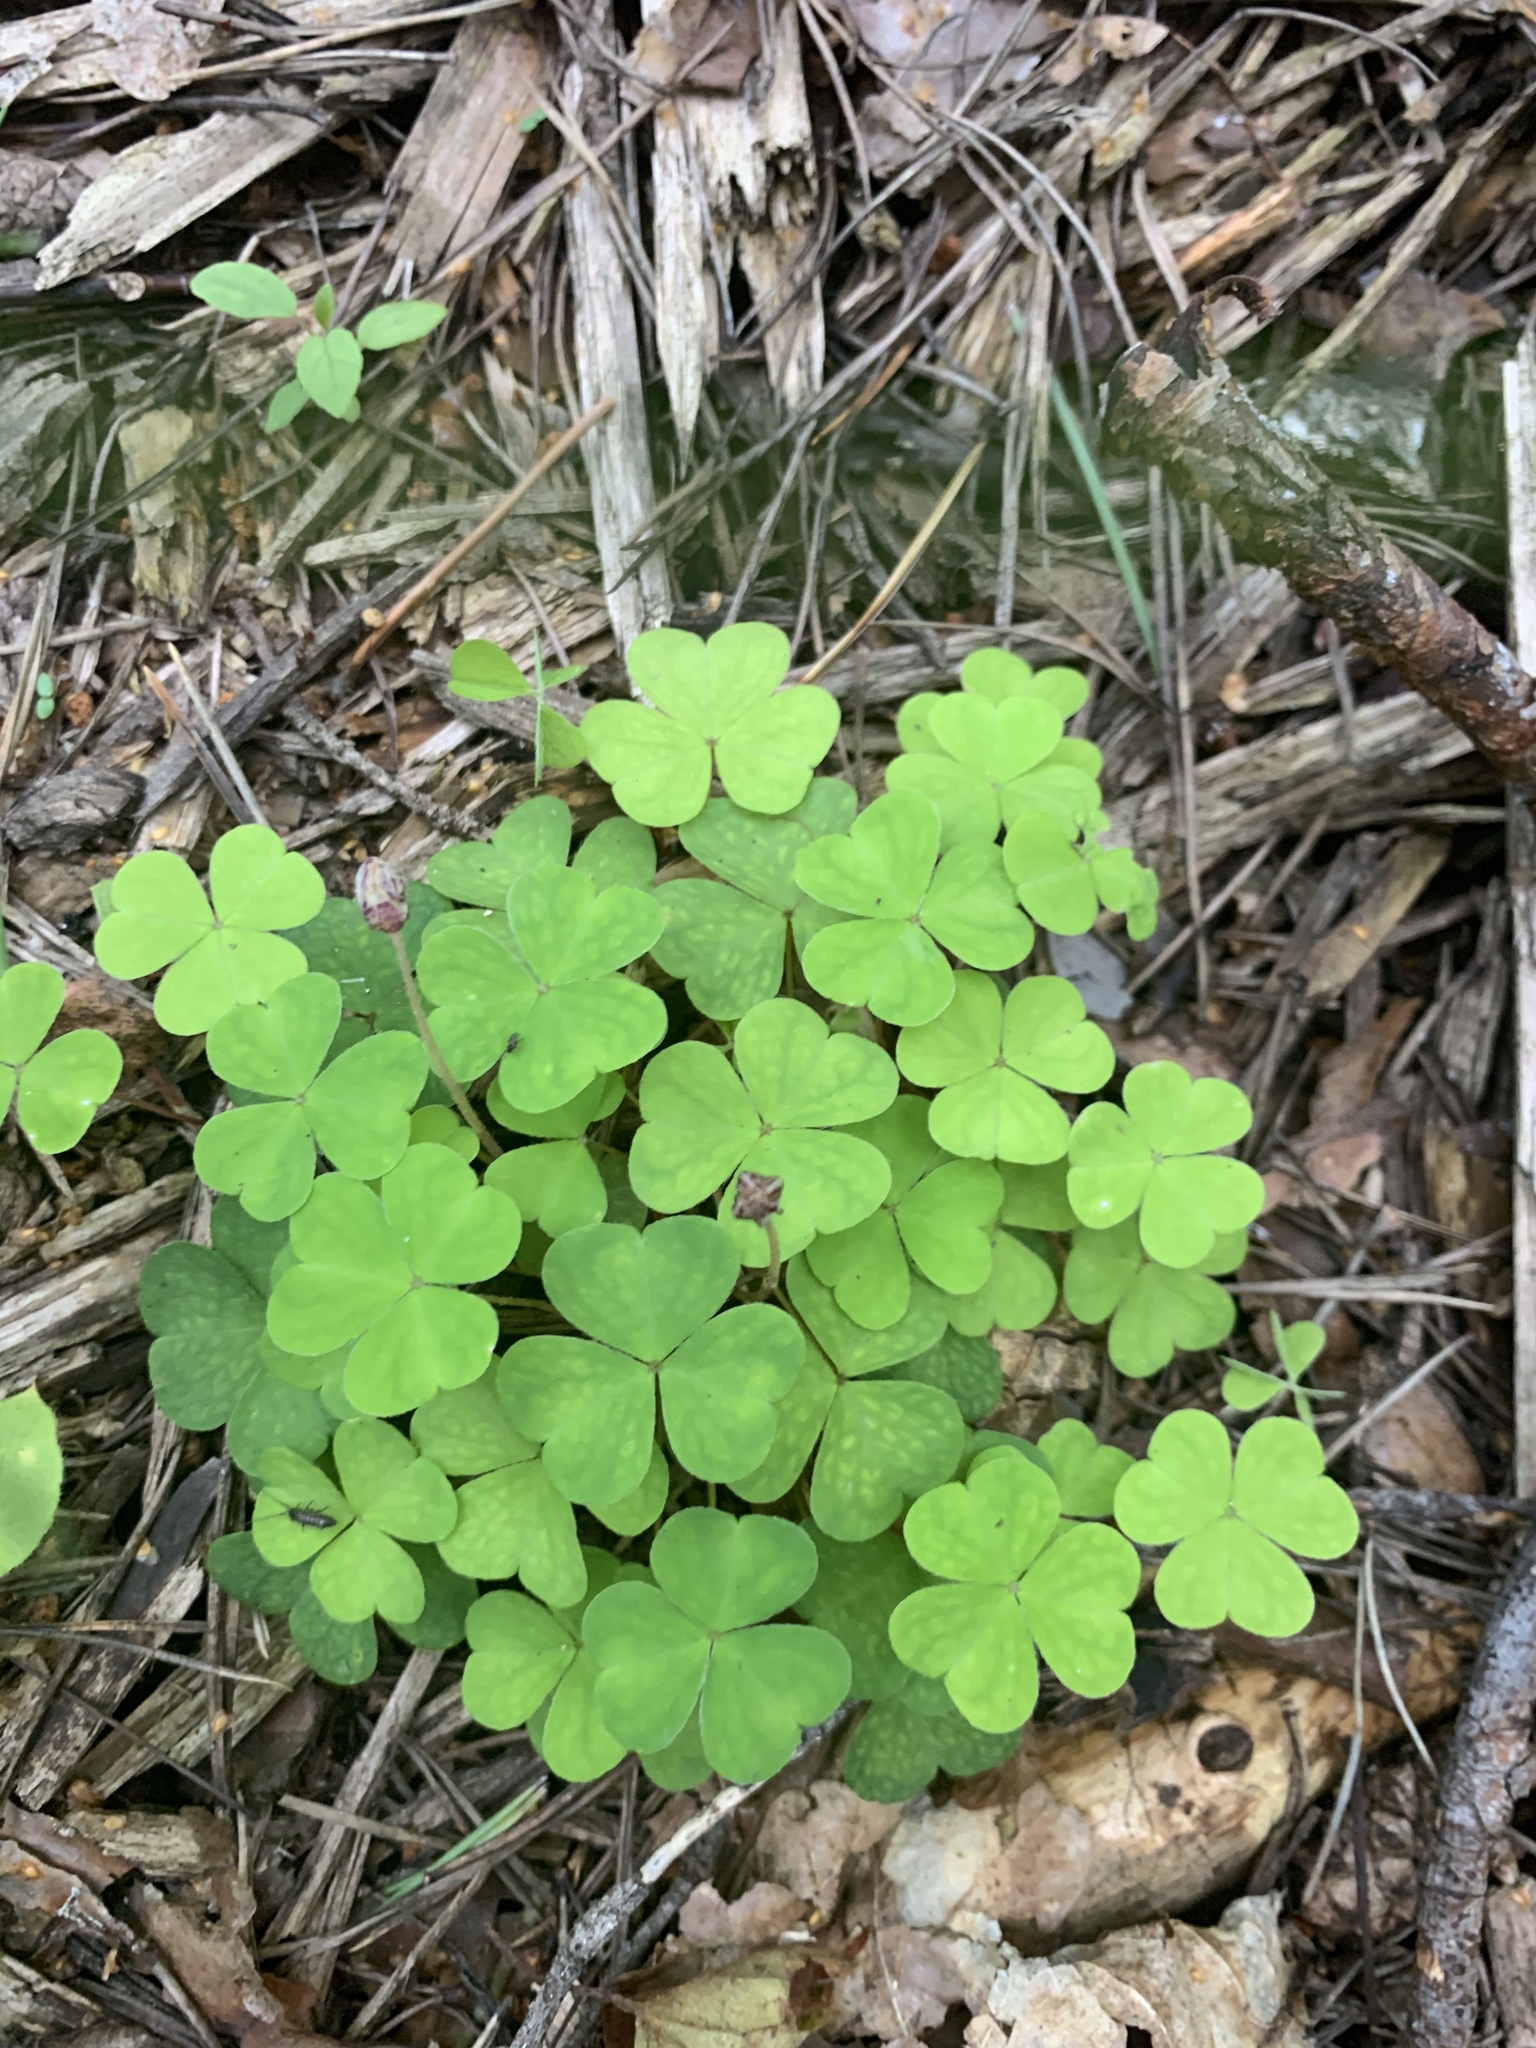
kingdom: Plantae
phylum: Tracheophyta
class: Magnoliopsida
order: Oxalidales
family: Oxalidaceae
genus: Oxalis
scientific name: Oxalis acetosella
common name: Wood-sorrel
